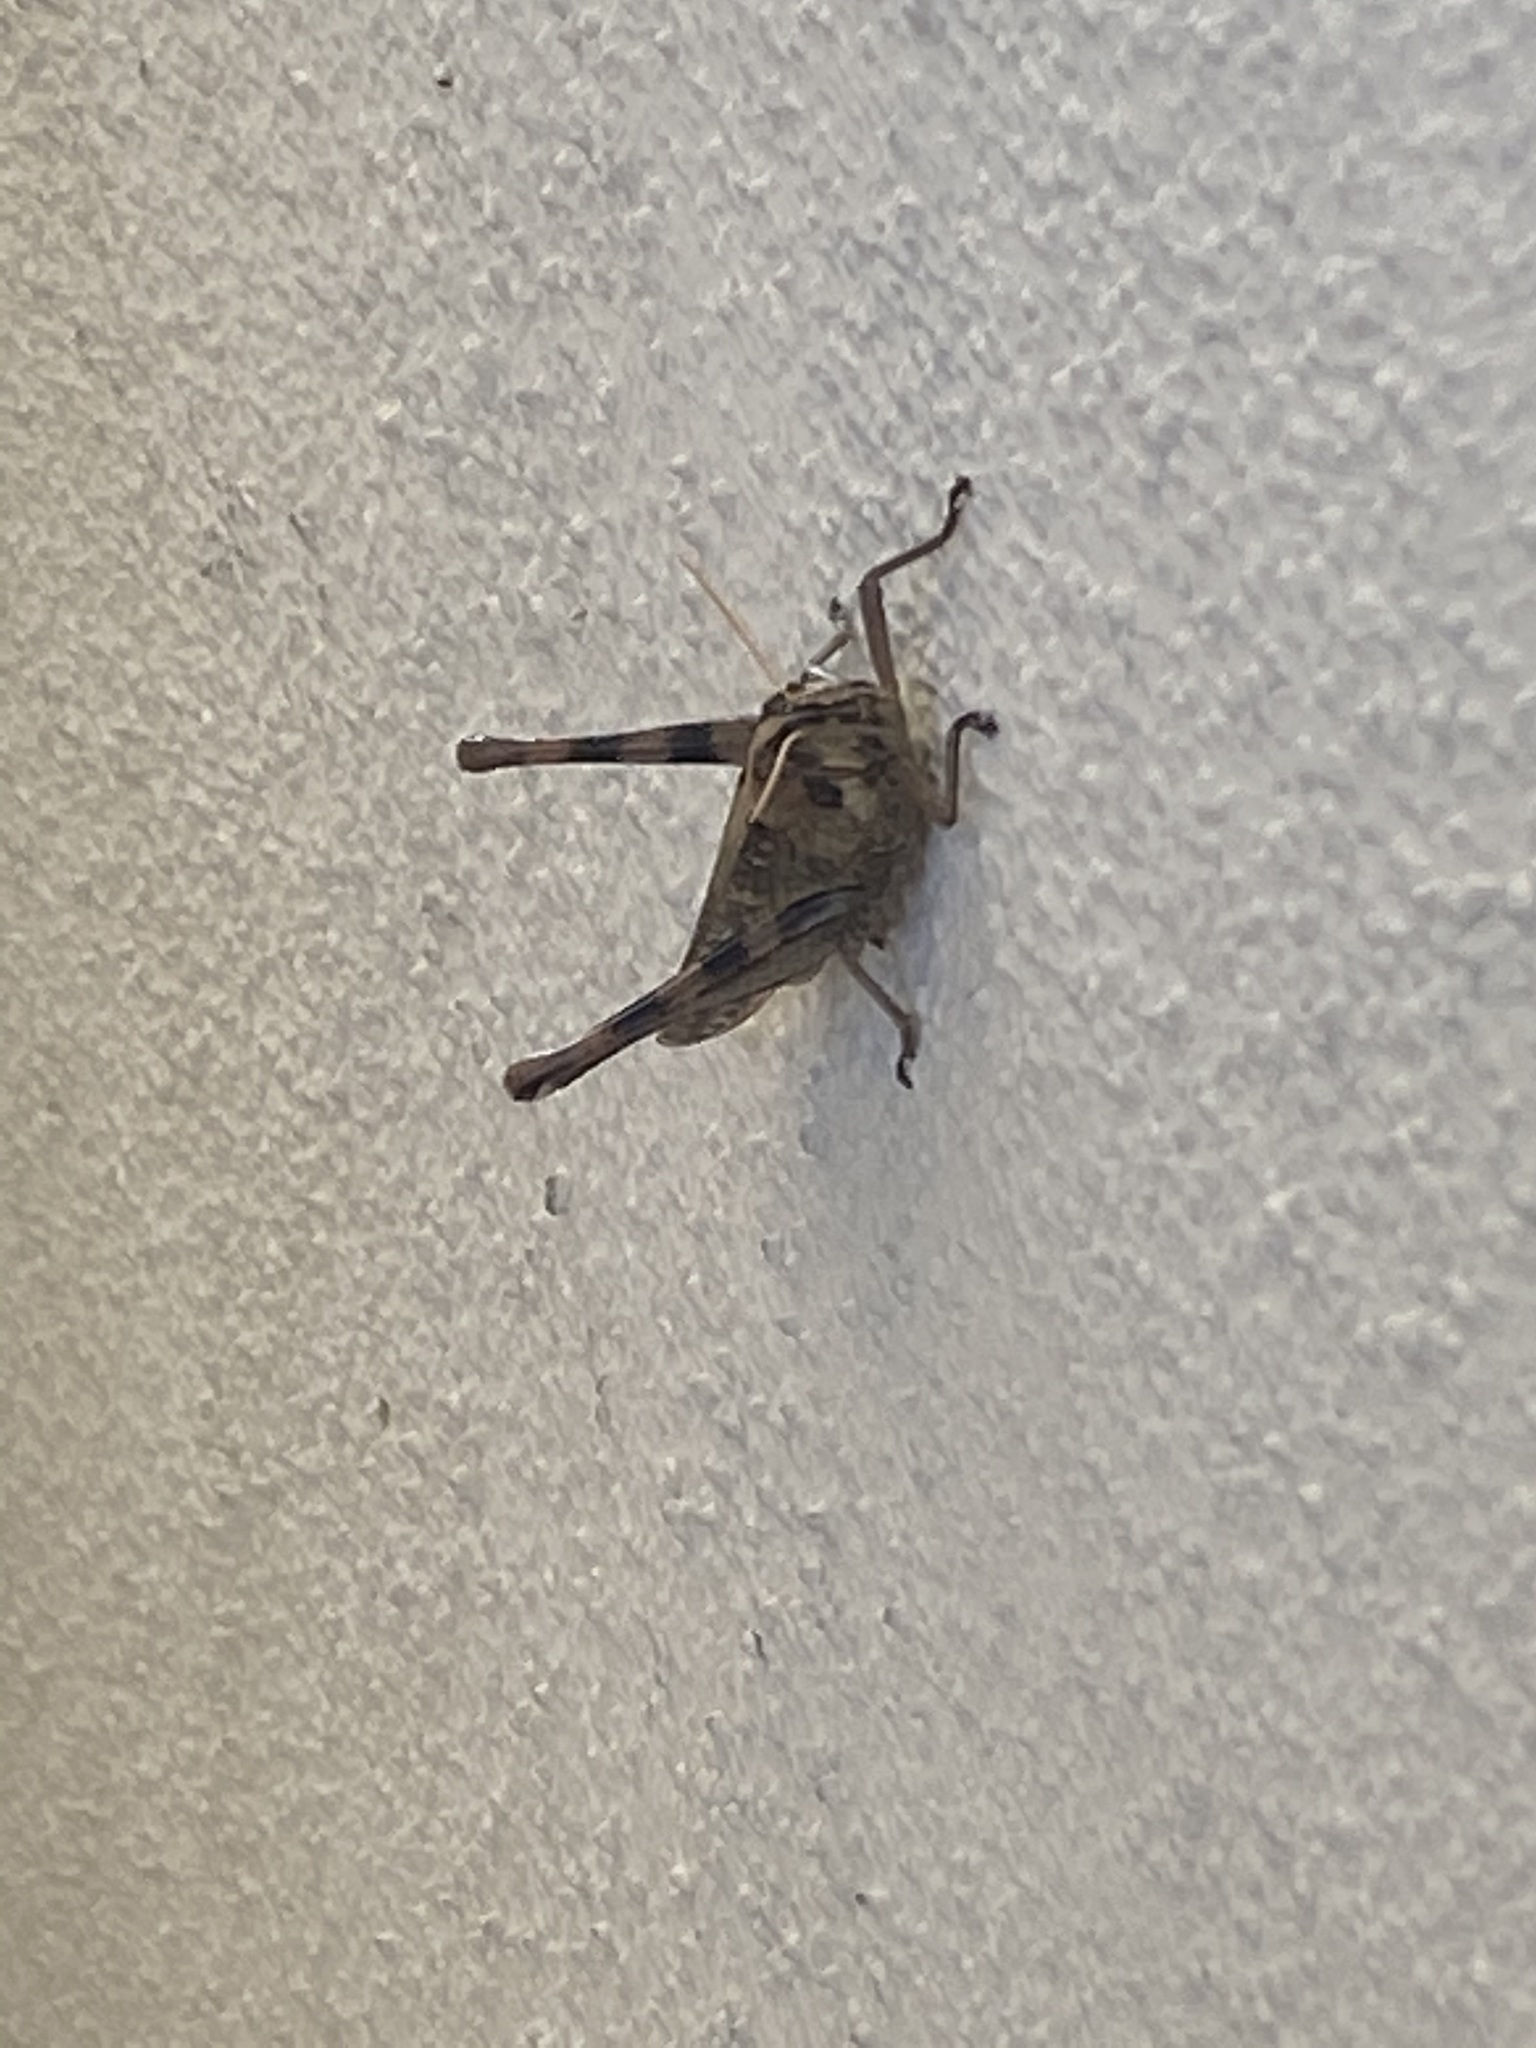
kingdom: Animalia
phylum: Arthropoda
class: Insecta
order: Orthoptera
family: Acrididae
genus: Schistocerca
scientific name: Schistocerca nitens
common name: Vagrant grasshopper
